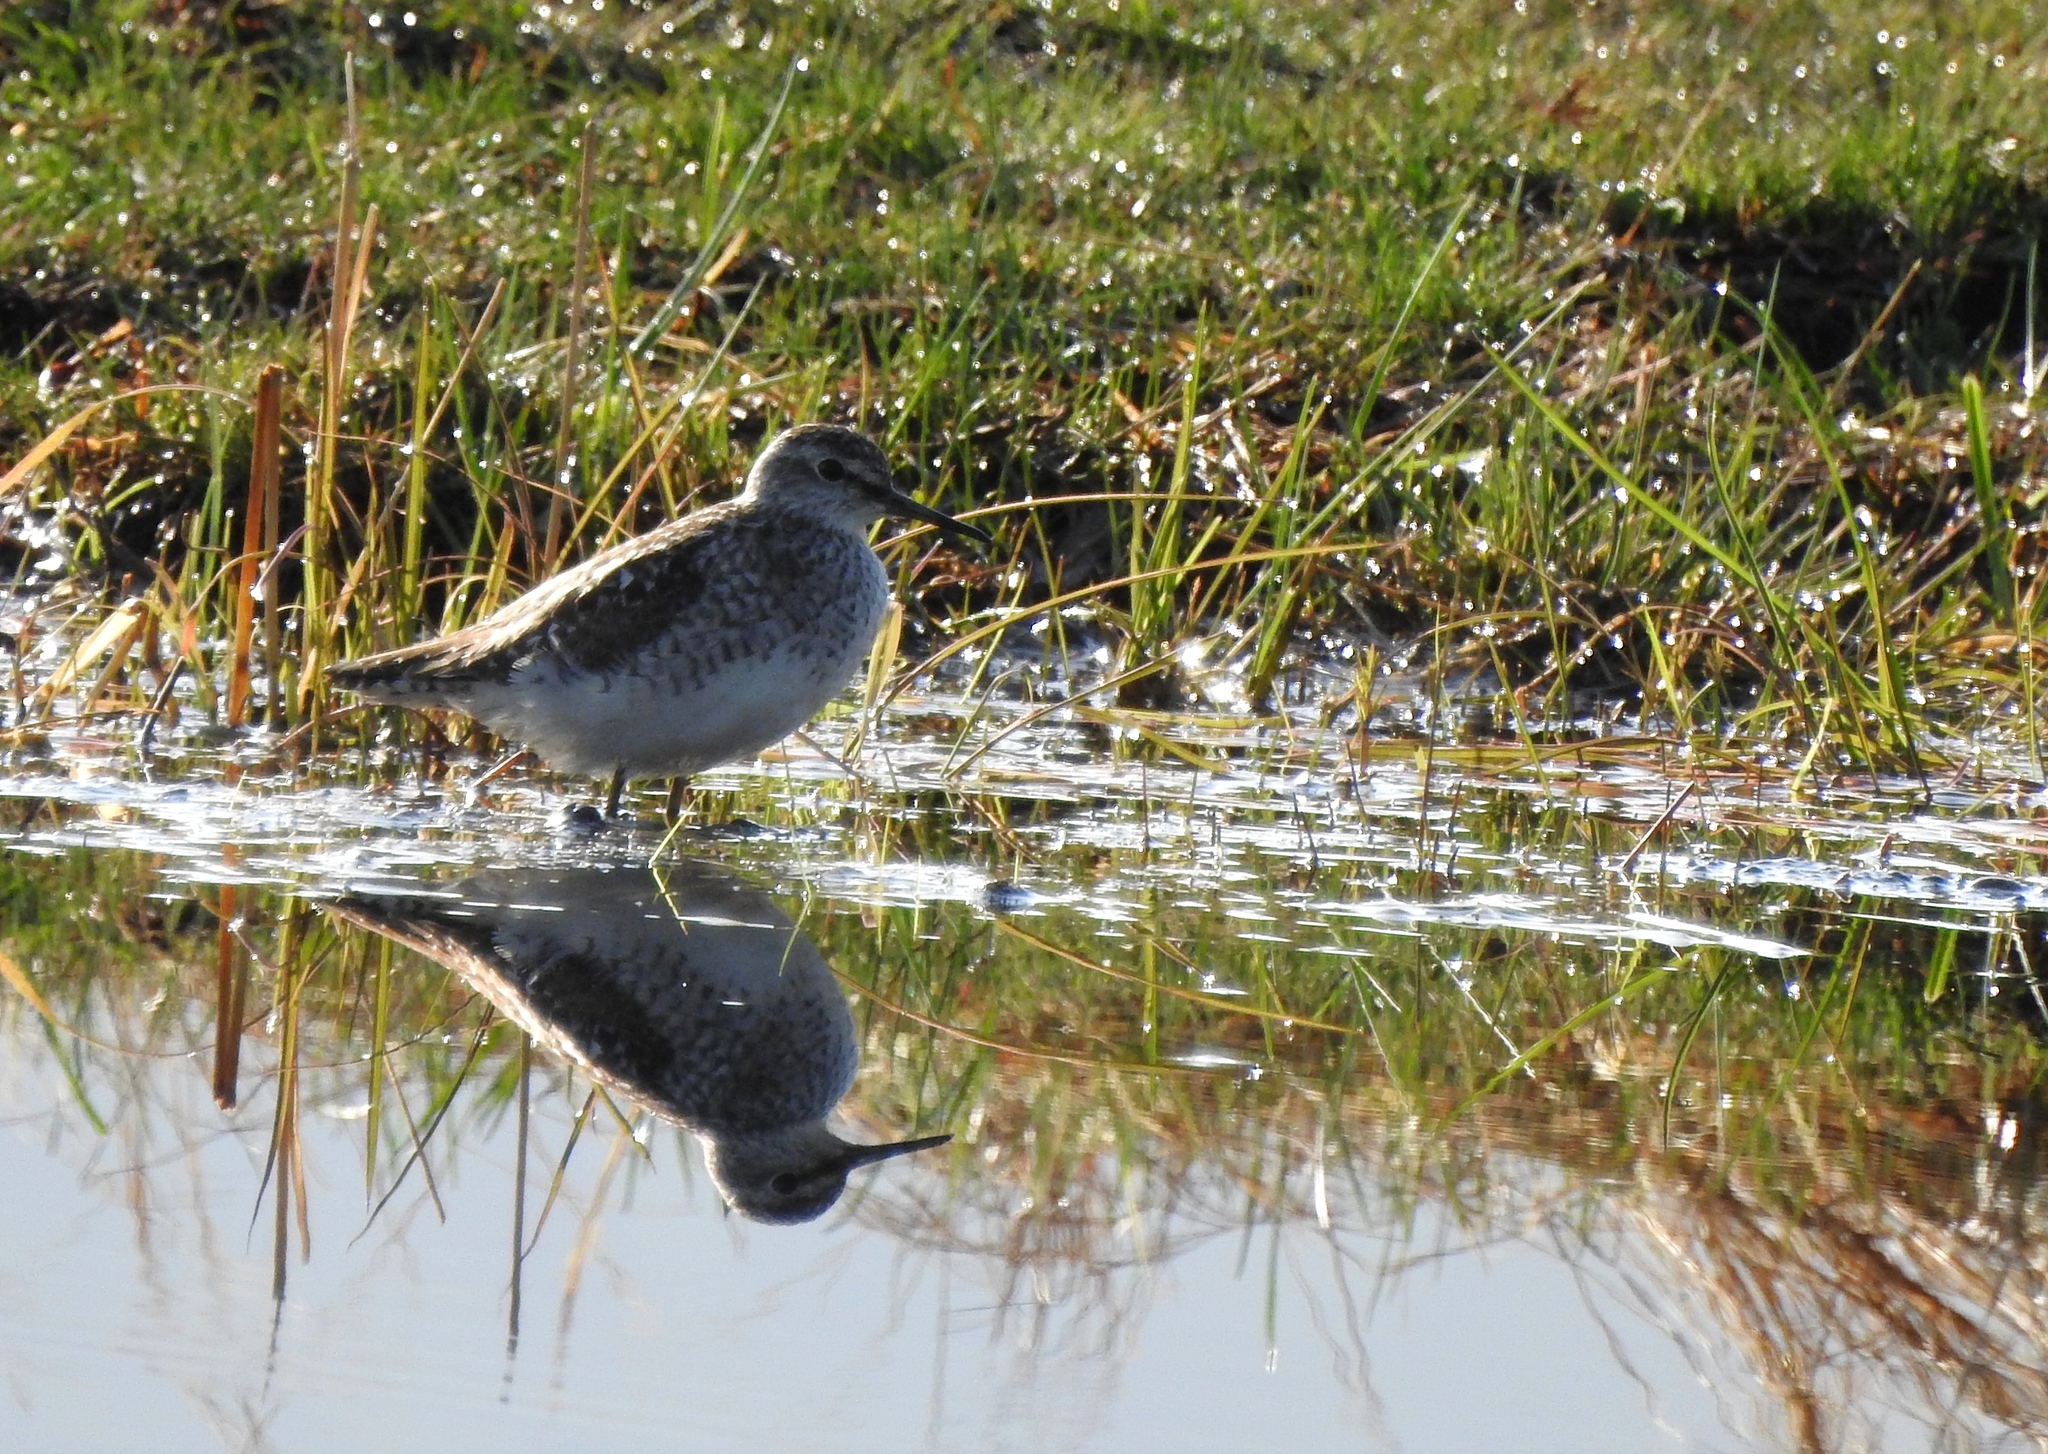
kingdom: Animalia
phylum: Chordata
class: Aves
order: Charadriiformes
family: Scolopacidae
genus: Tringa
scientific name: Tringa glareola
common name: Wood sandpiper
